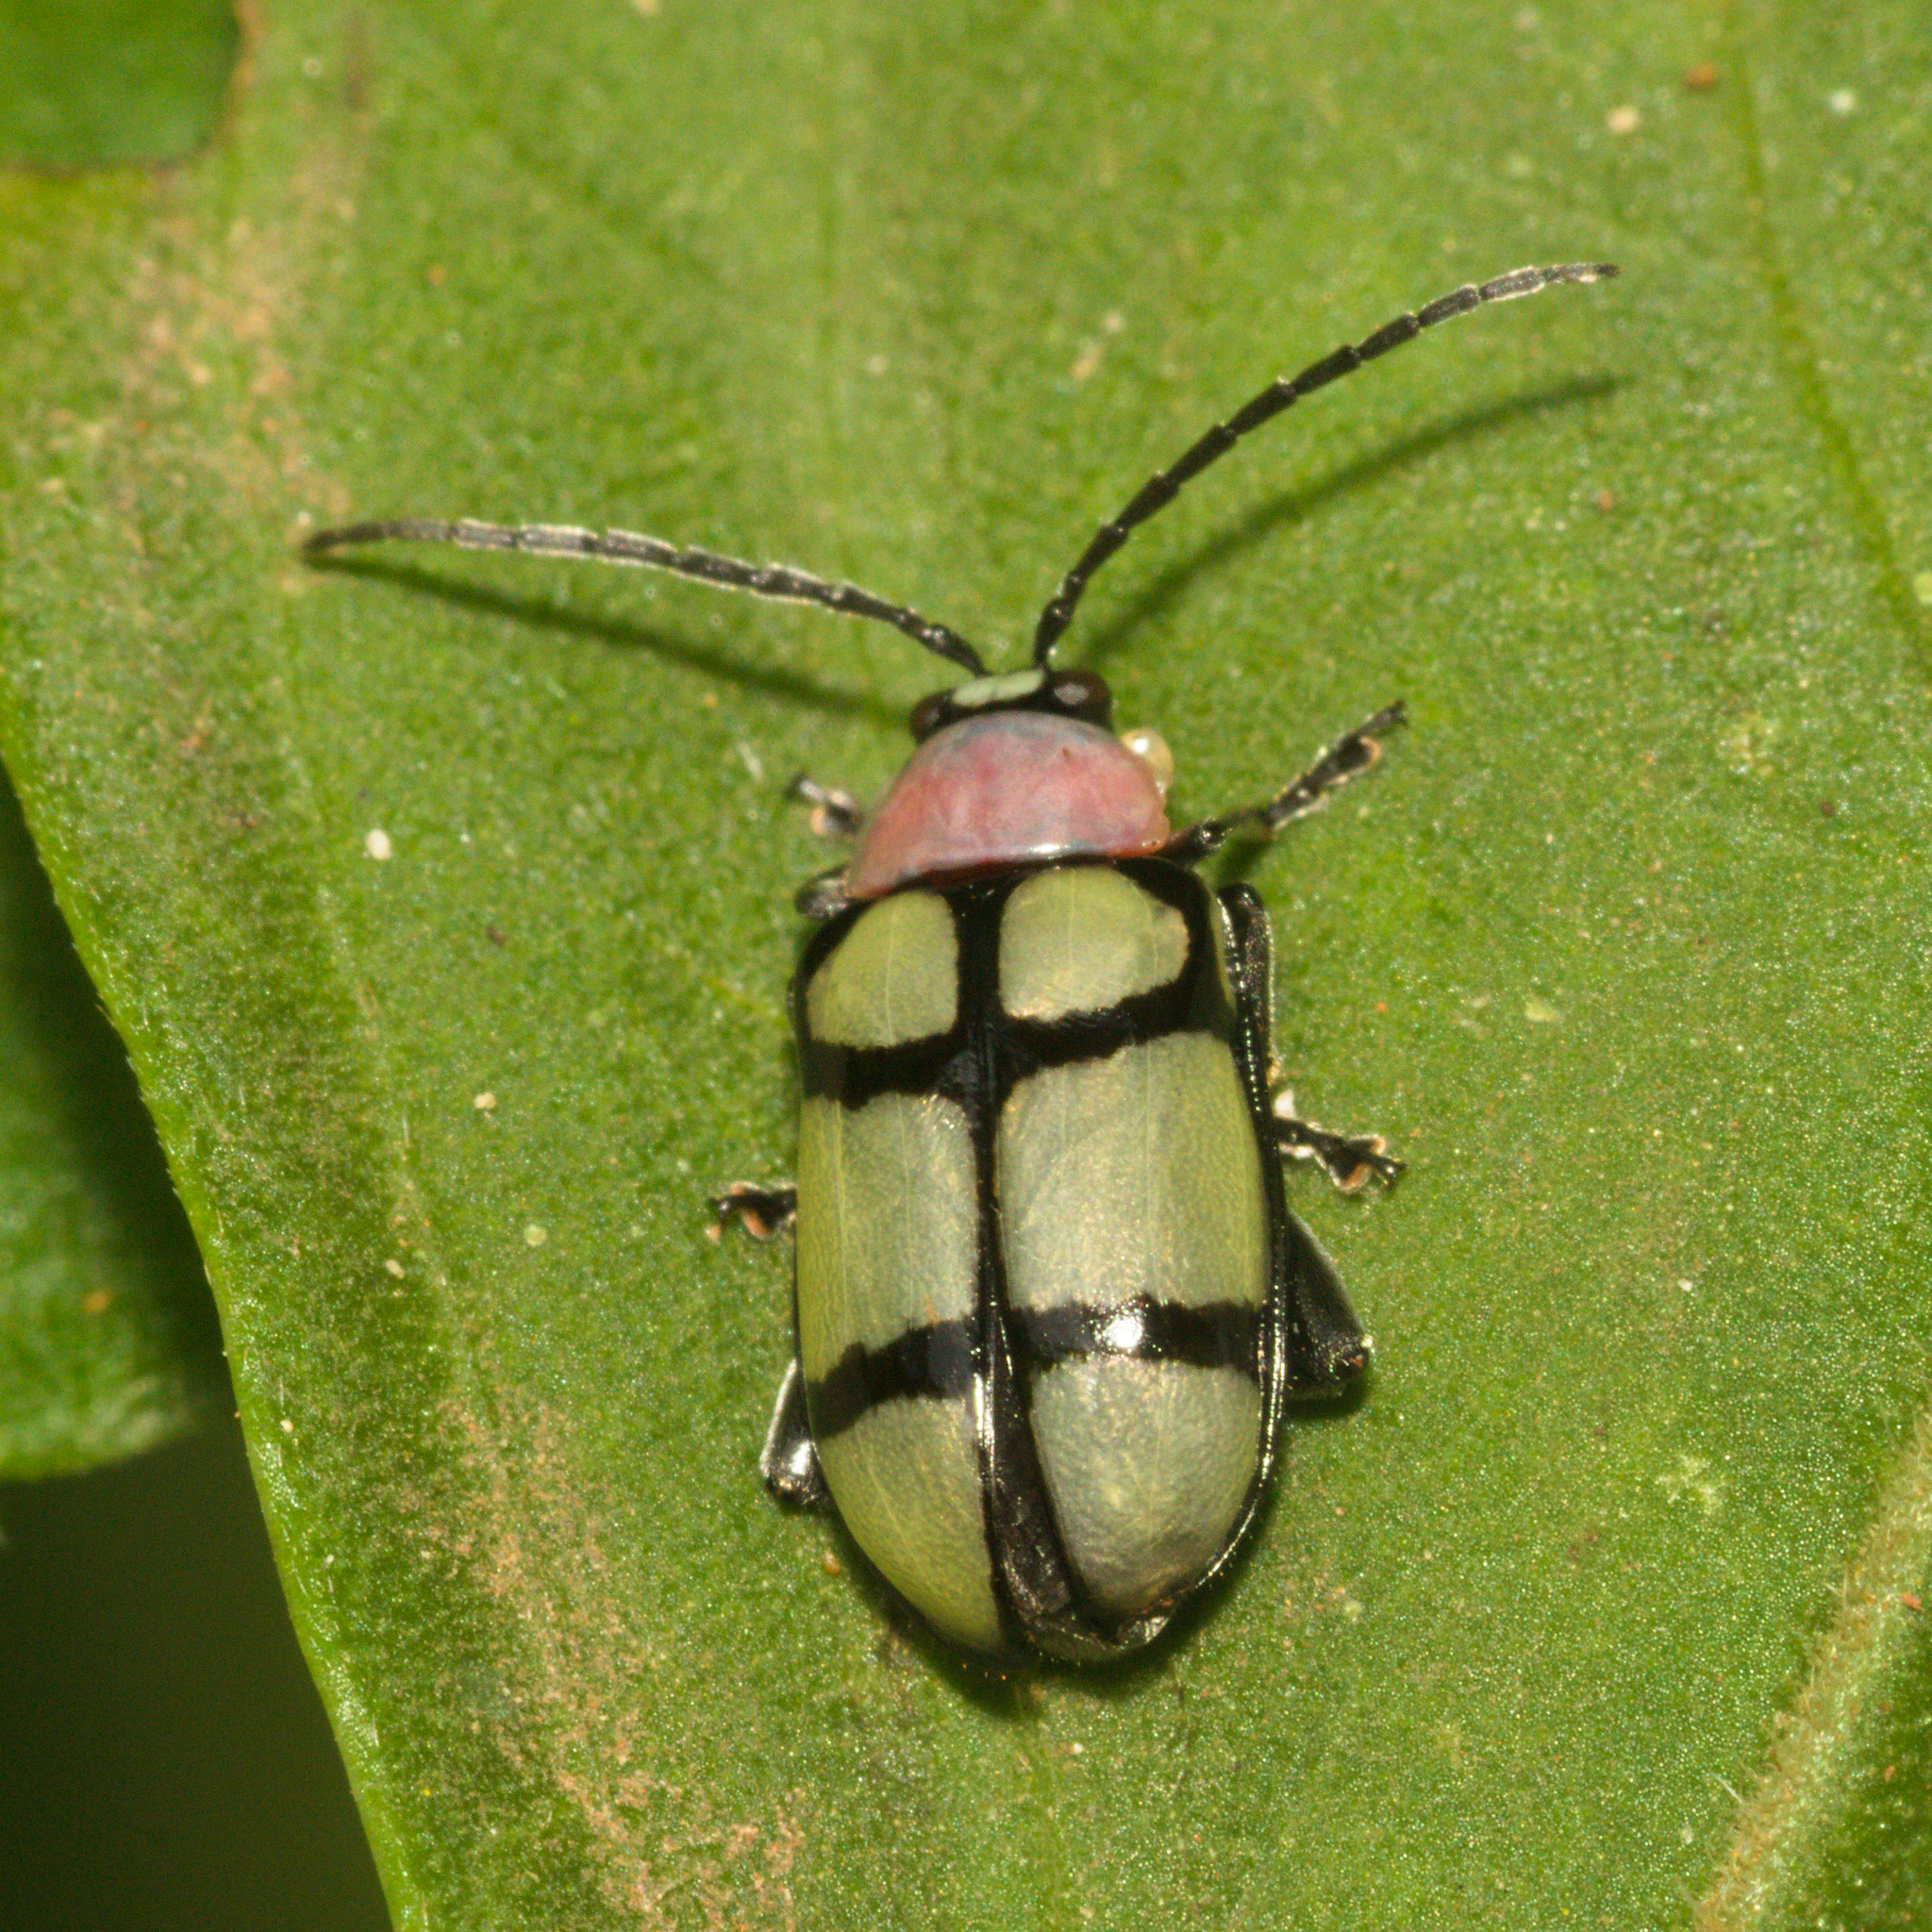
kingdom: Animalia
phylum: Arthropoda
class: Insecta
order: Coleoptera
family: Chrysomelidae
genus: Omophoita
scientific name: Omophoita
